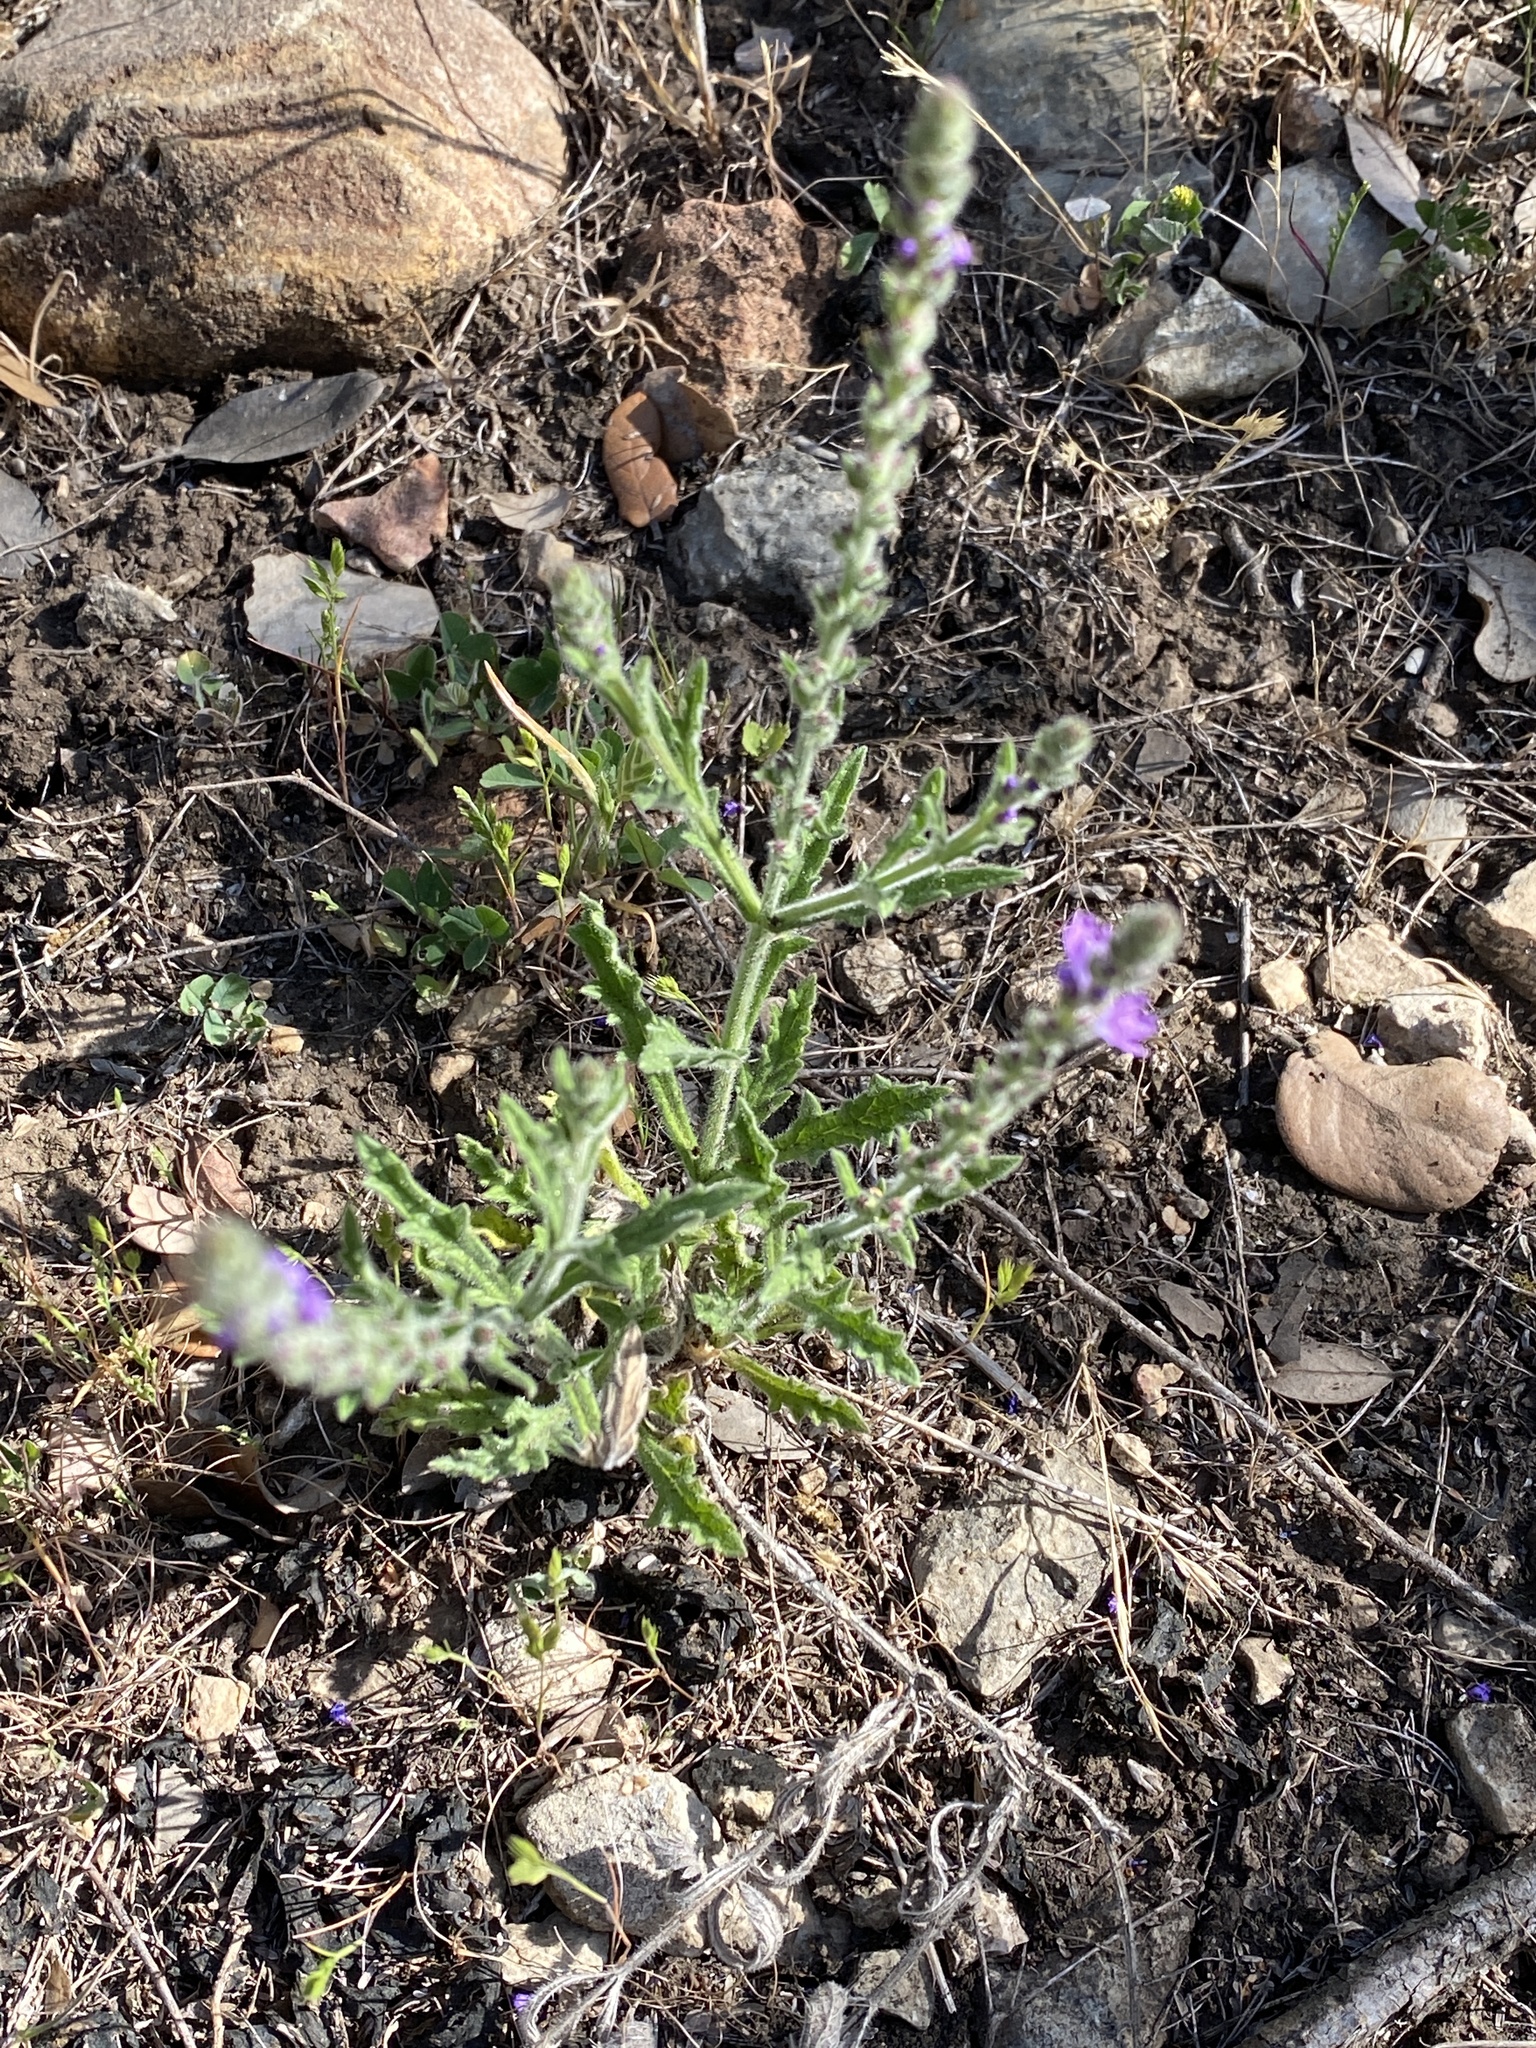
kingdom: Plantae
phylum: Tracheophyta
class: Magnoliopsida
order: Lamiales
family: Verbenaceae
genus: Verbena
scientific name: Verbena canescens
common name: Gray vervain
